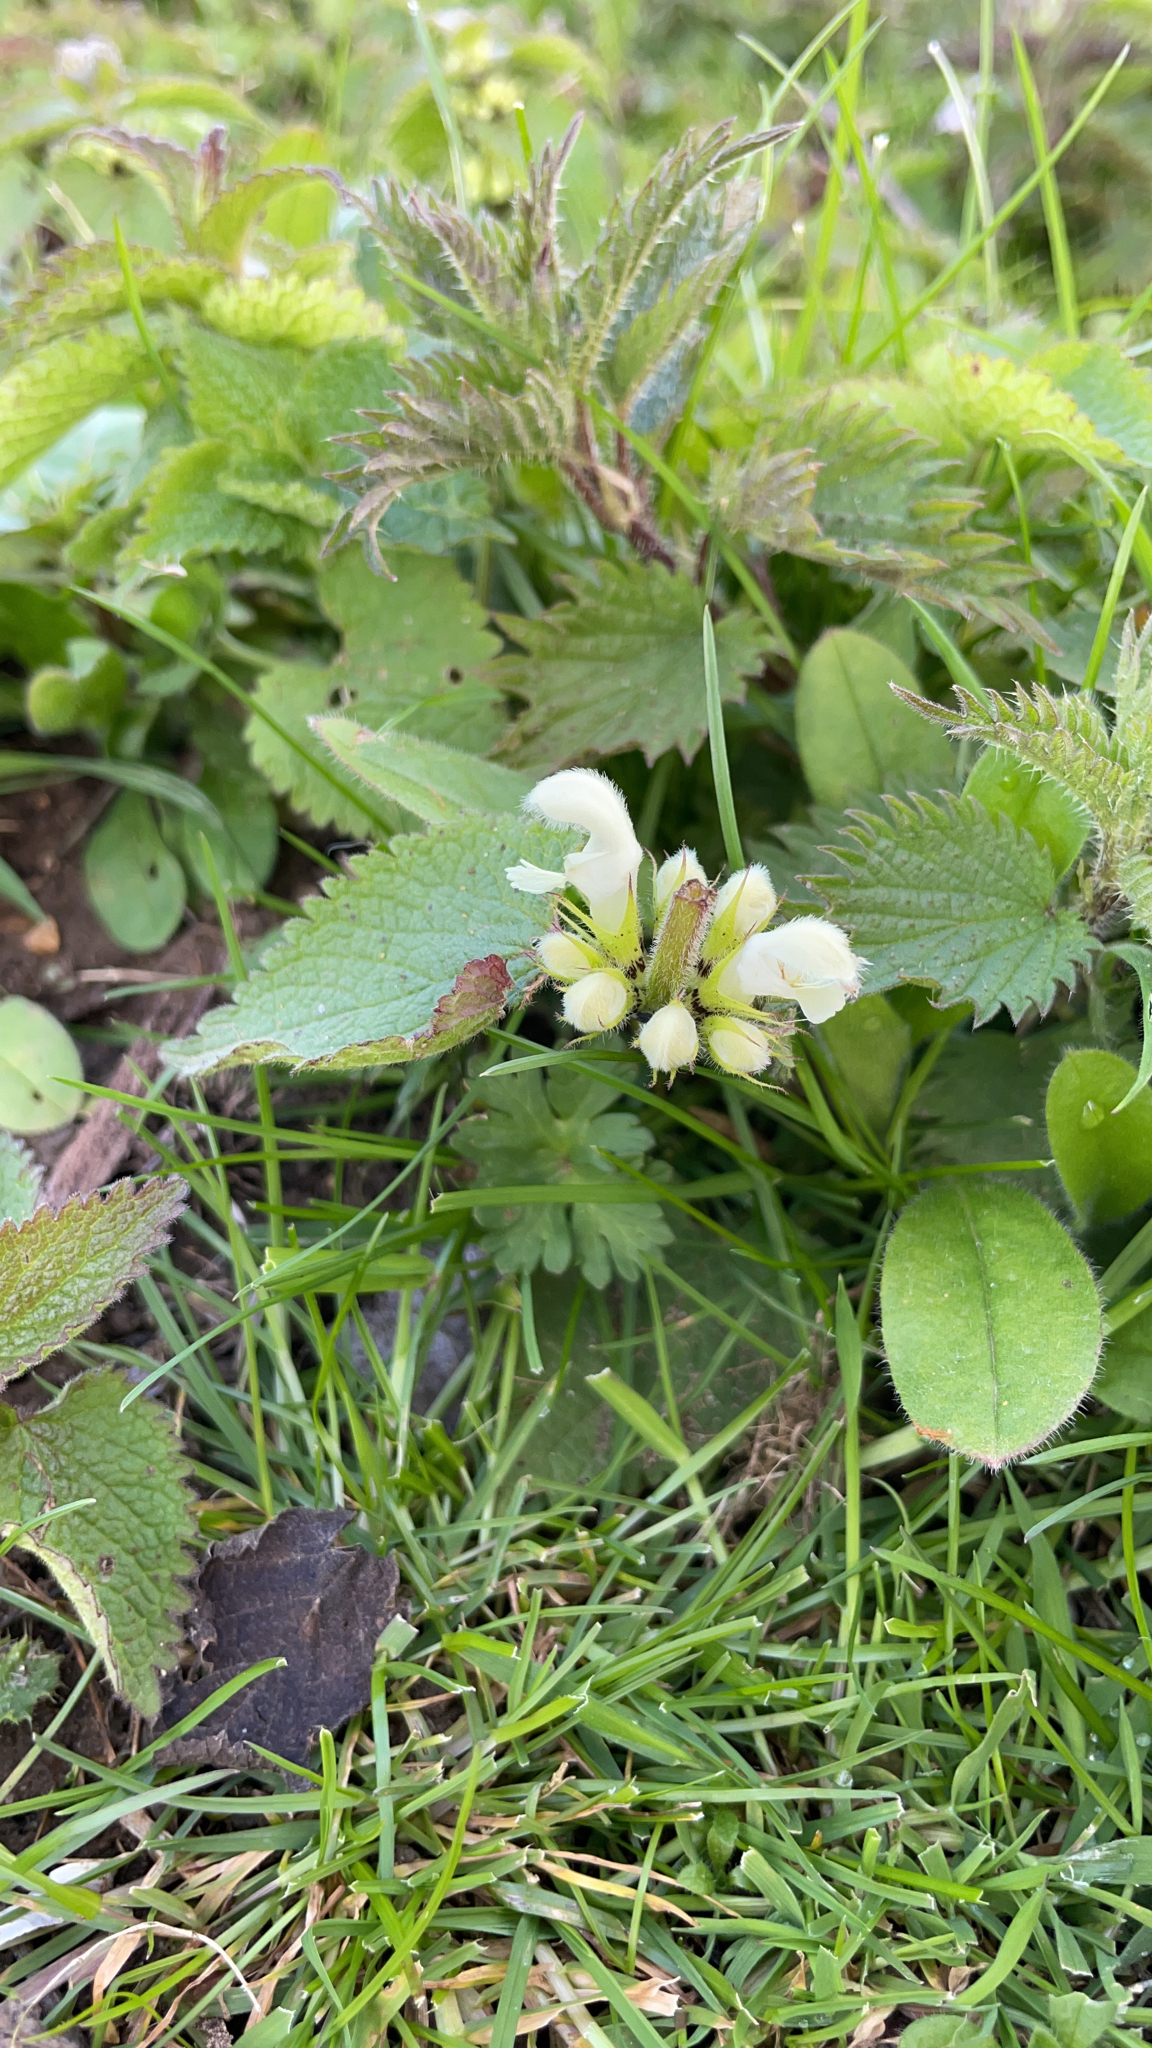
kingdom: Plantae
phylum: Tracheophyta
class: Magnoliopsida
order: Lamiales
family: Lamiaceae
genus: Lamium
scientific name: Lamium album
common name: White dead-nettle
